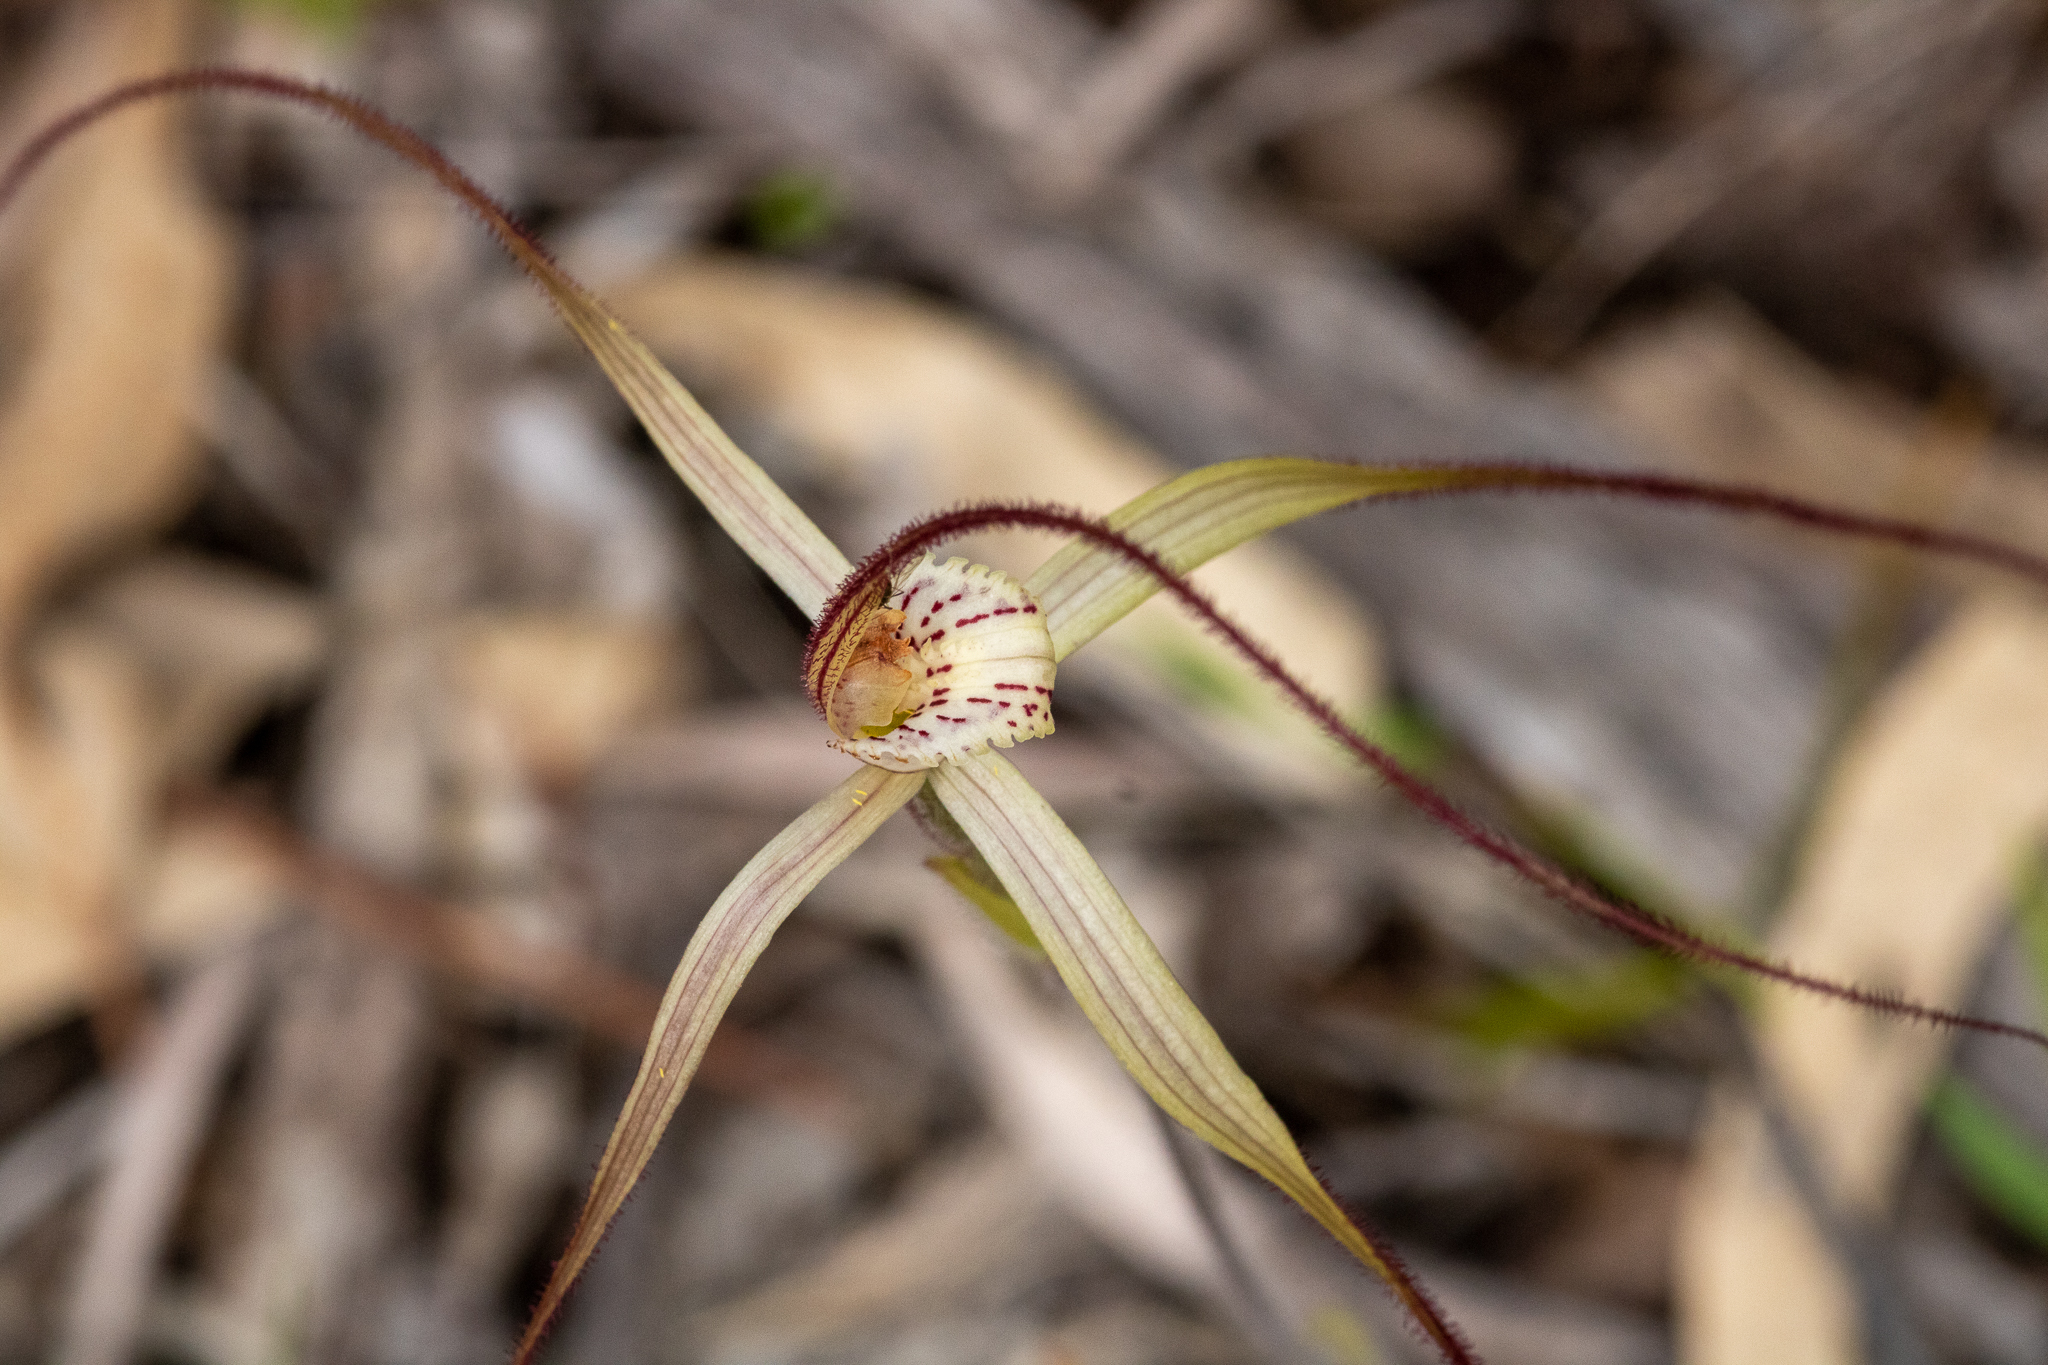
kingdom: Plantae
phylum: Tracheophyta
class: Liliopsida
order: Asparagales
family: Orchidaceae
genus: Caladenia
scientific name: Caladenia varians
